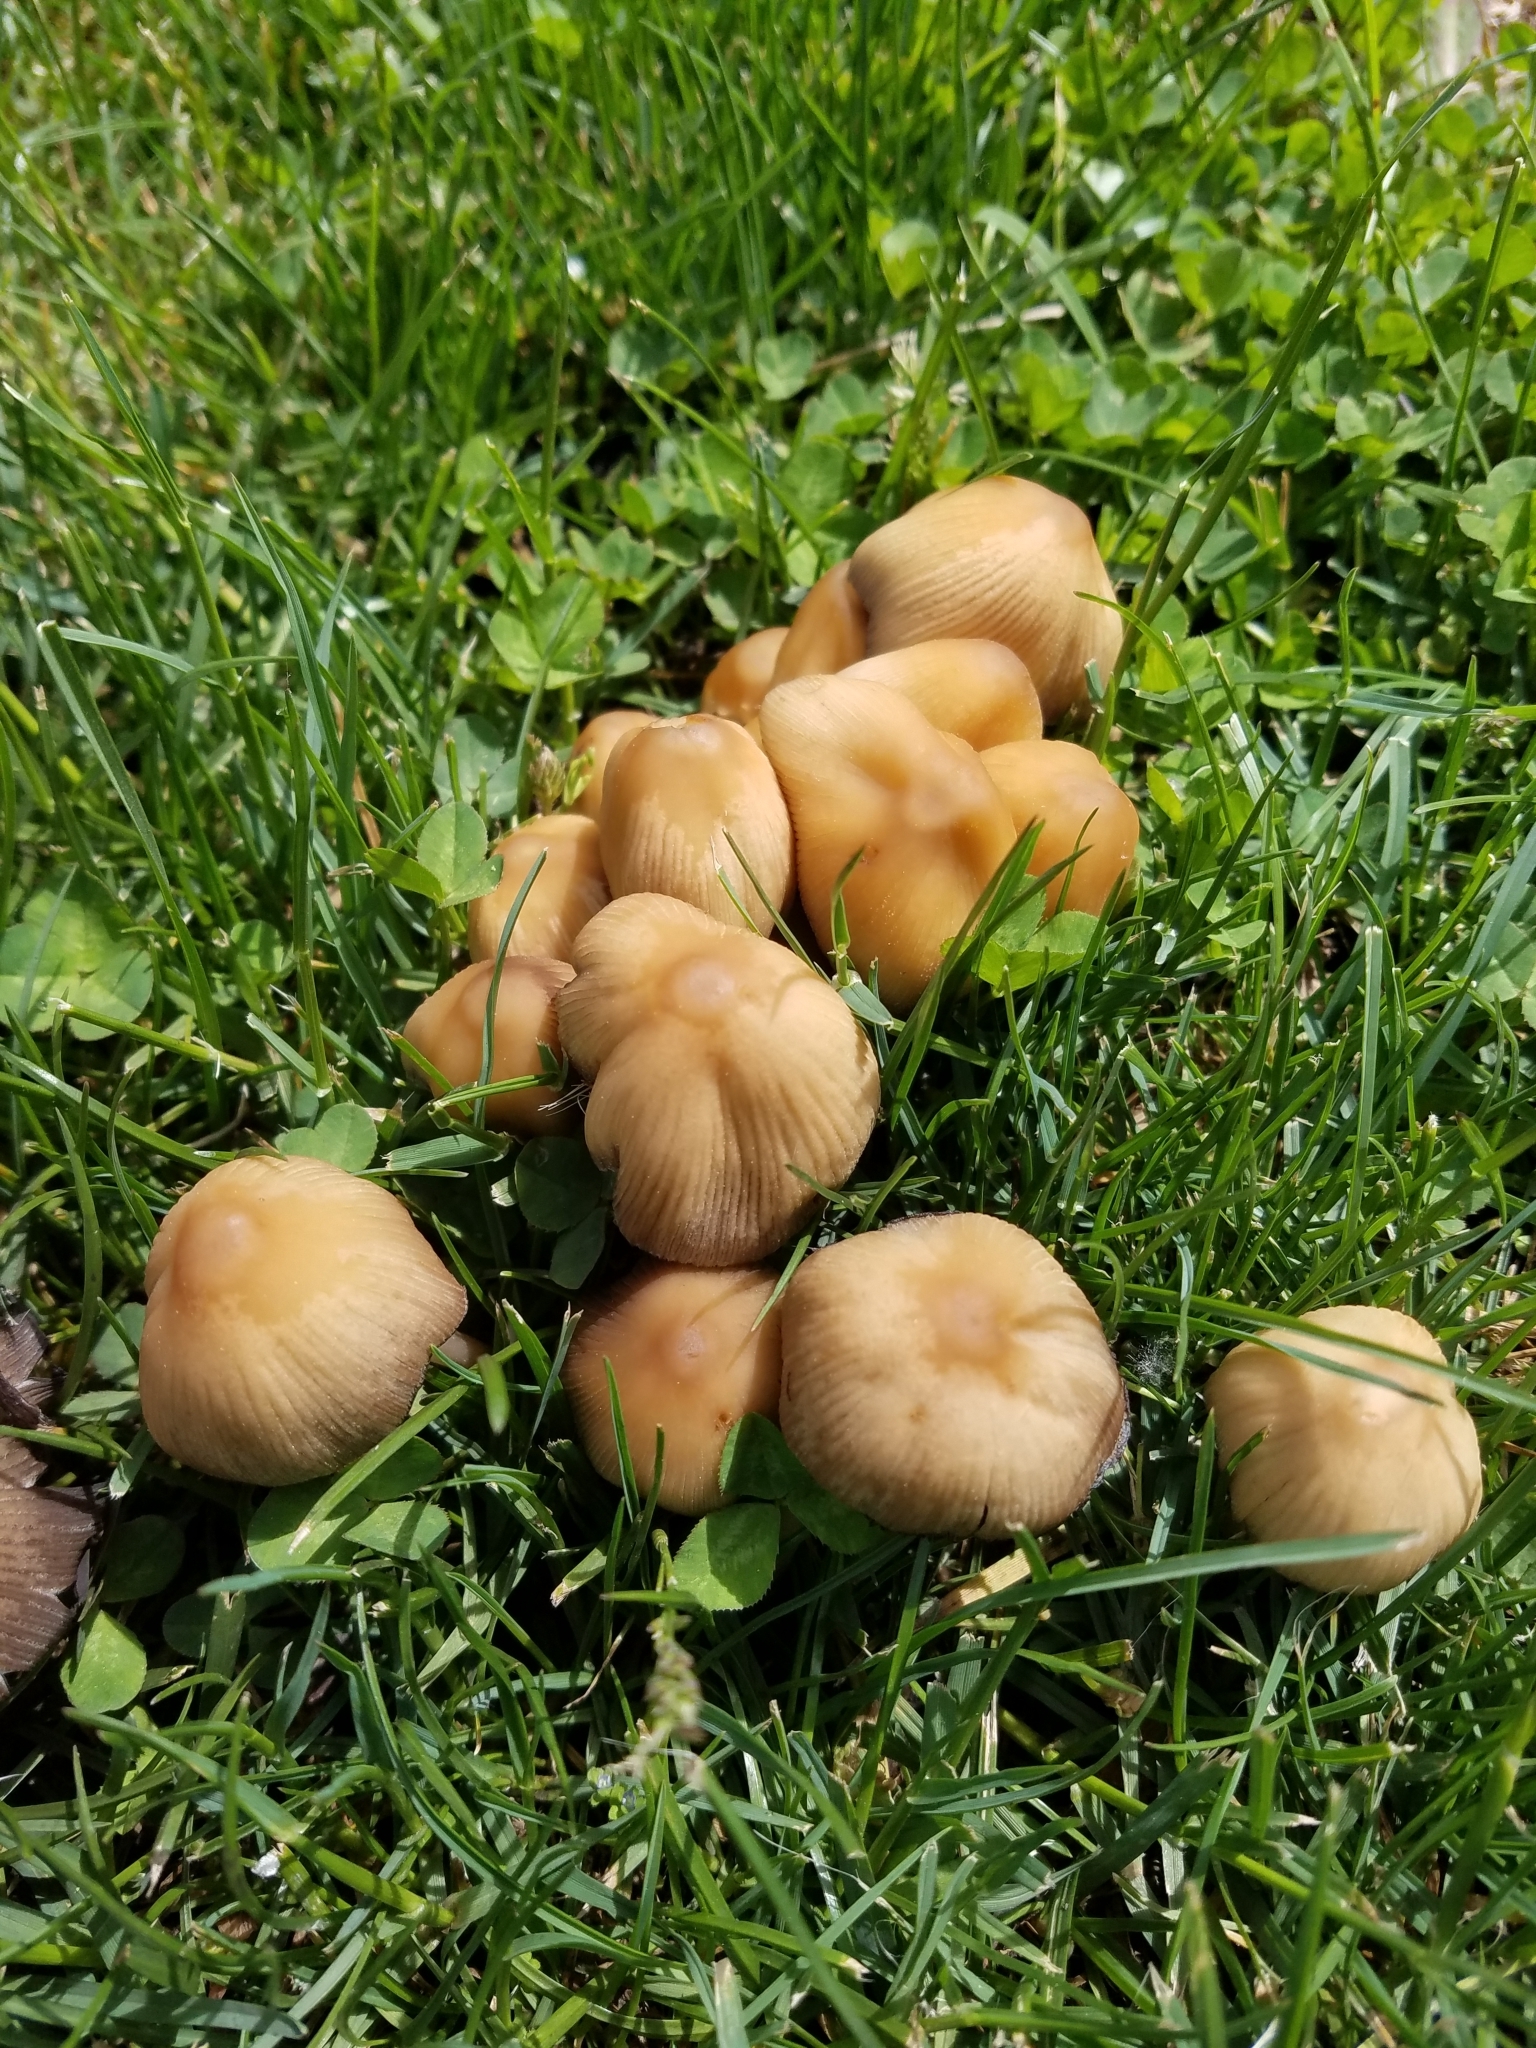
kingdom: Fungi
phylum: Basidiomycota
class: Agaricomycetes
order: Agaricales
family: Psathyrellaceae
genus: Coprinellus
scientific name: Coprinellus micaceus
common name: Glistening ink-cap
